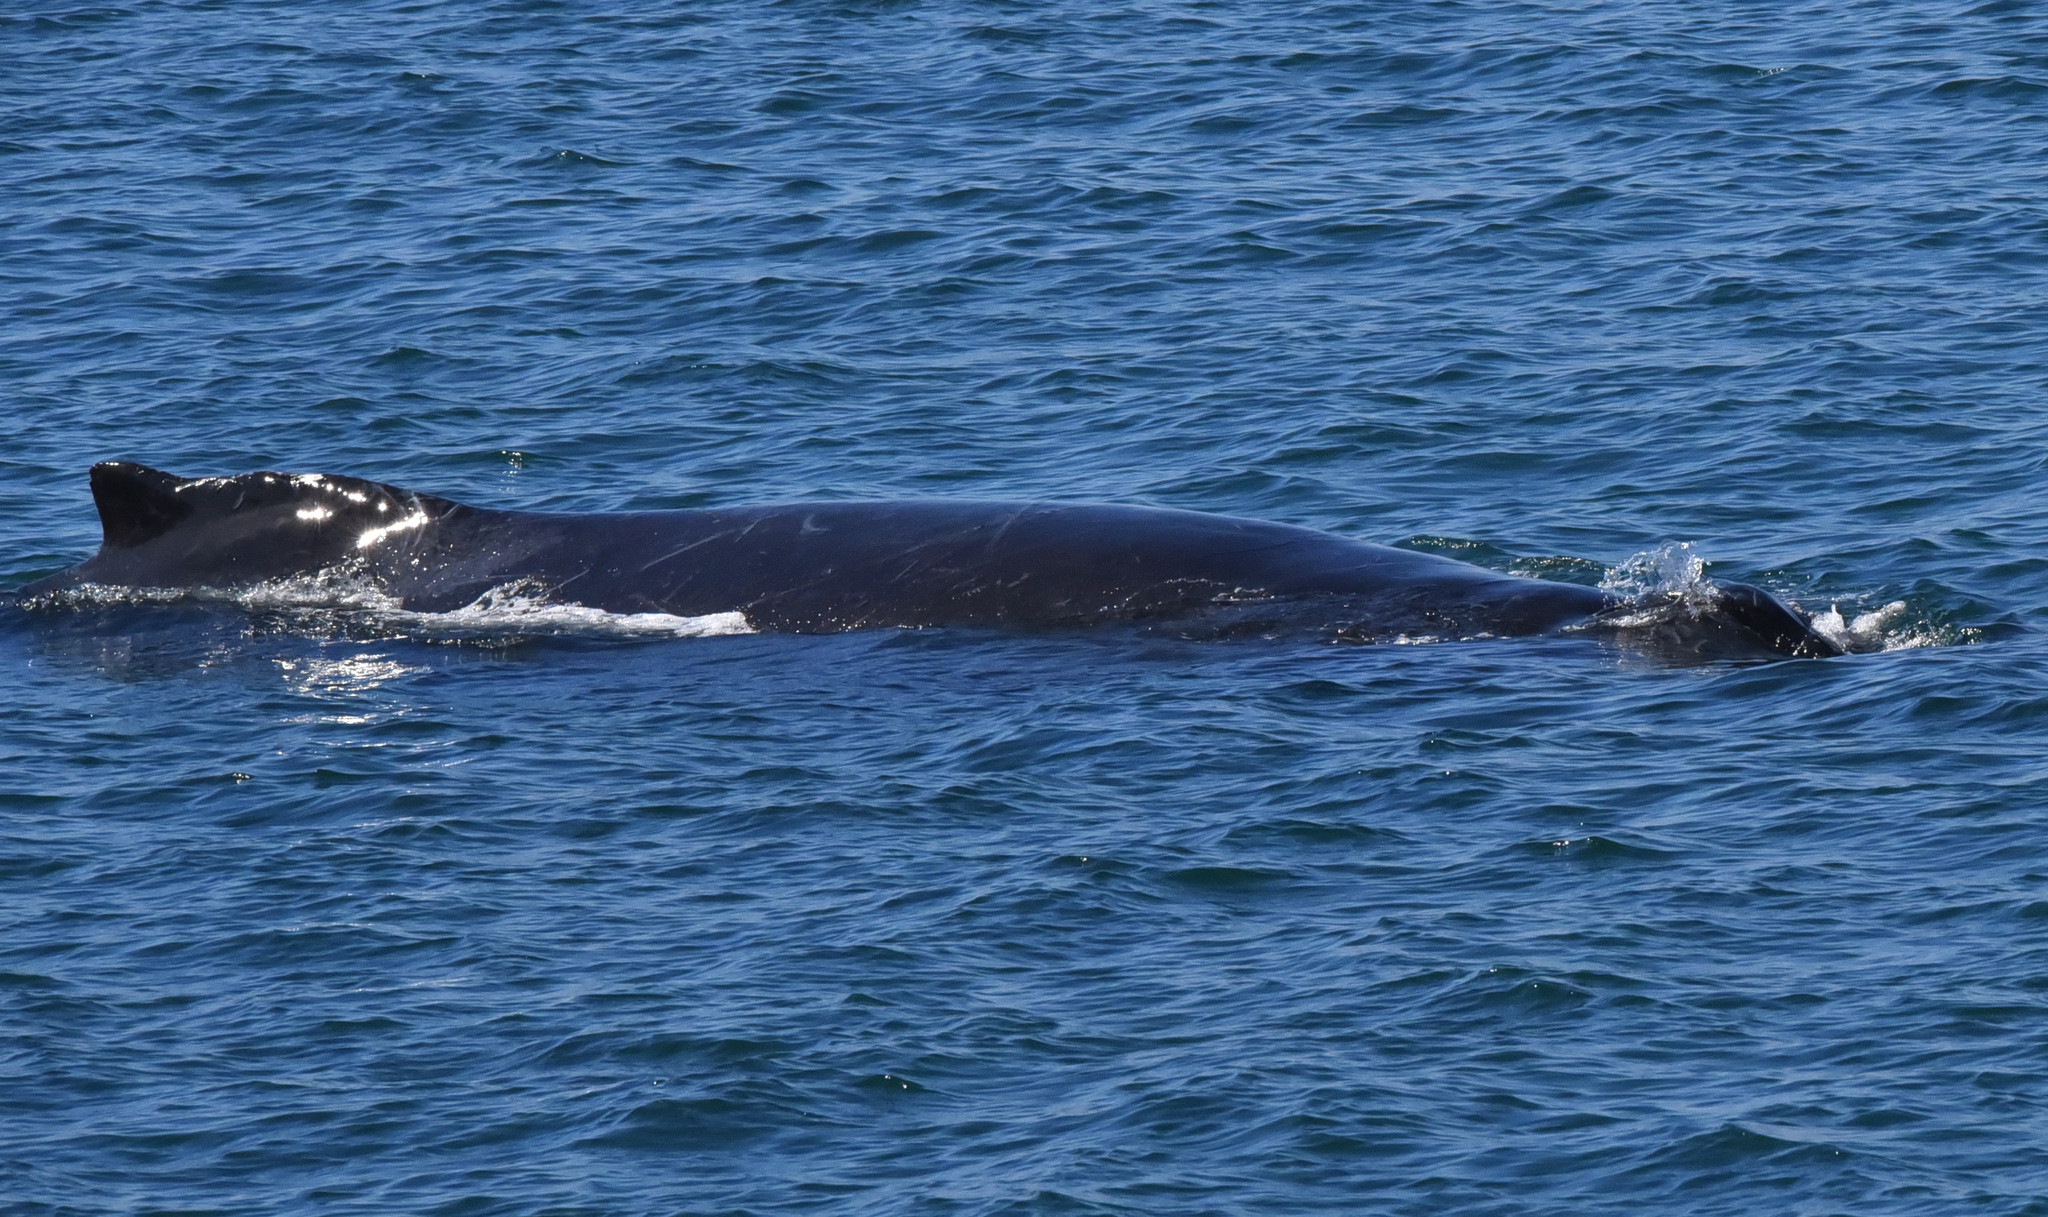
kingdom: Animalia
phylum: Chordata
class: Mammalia
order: Cetacea
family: Balaenopteridae
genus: Megaptera
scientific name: Megaptera novaeangliae
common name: Humpback whale
